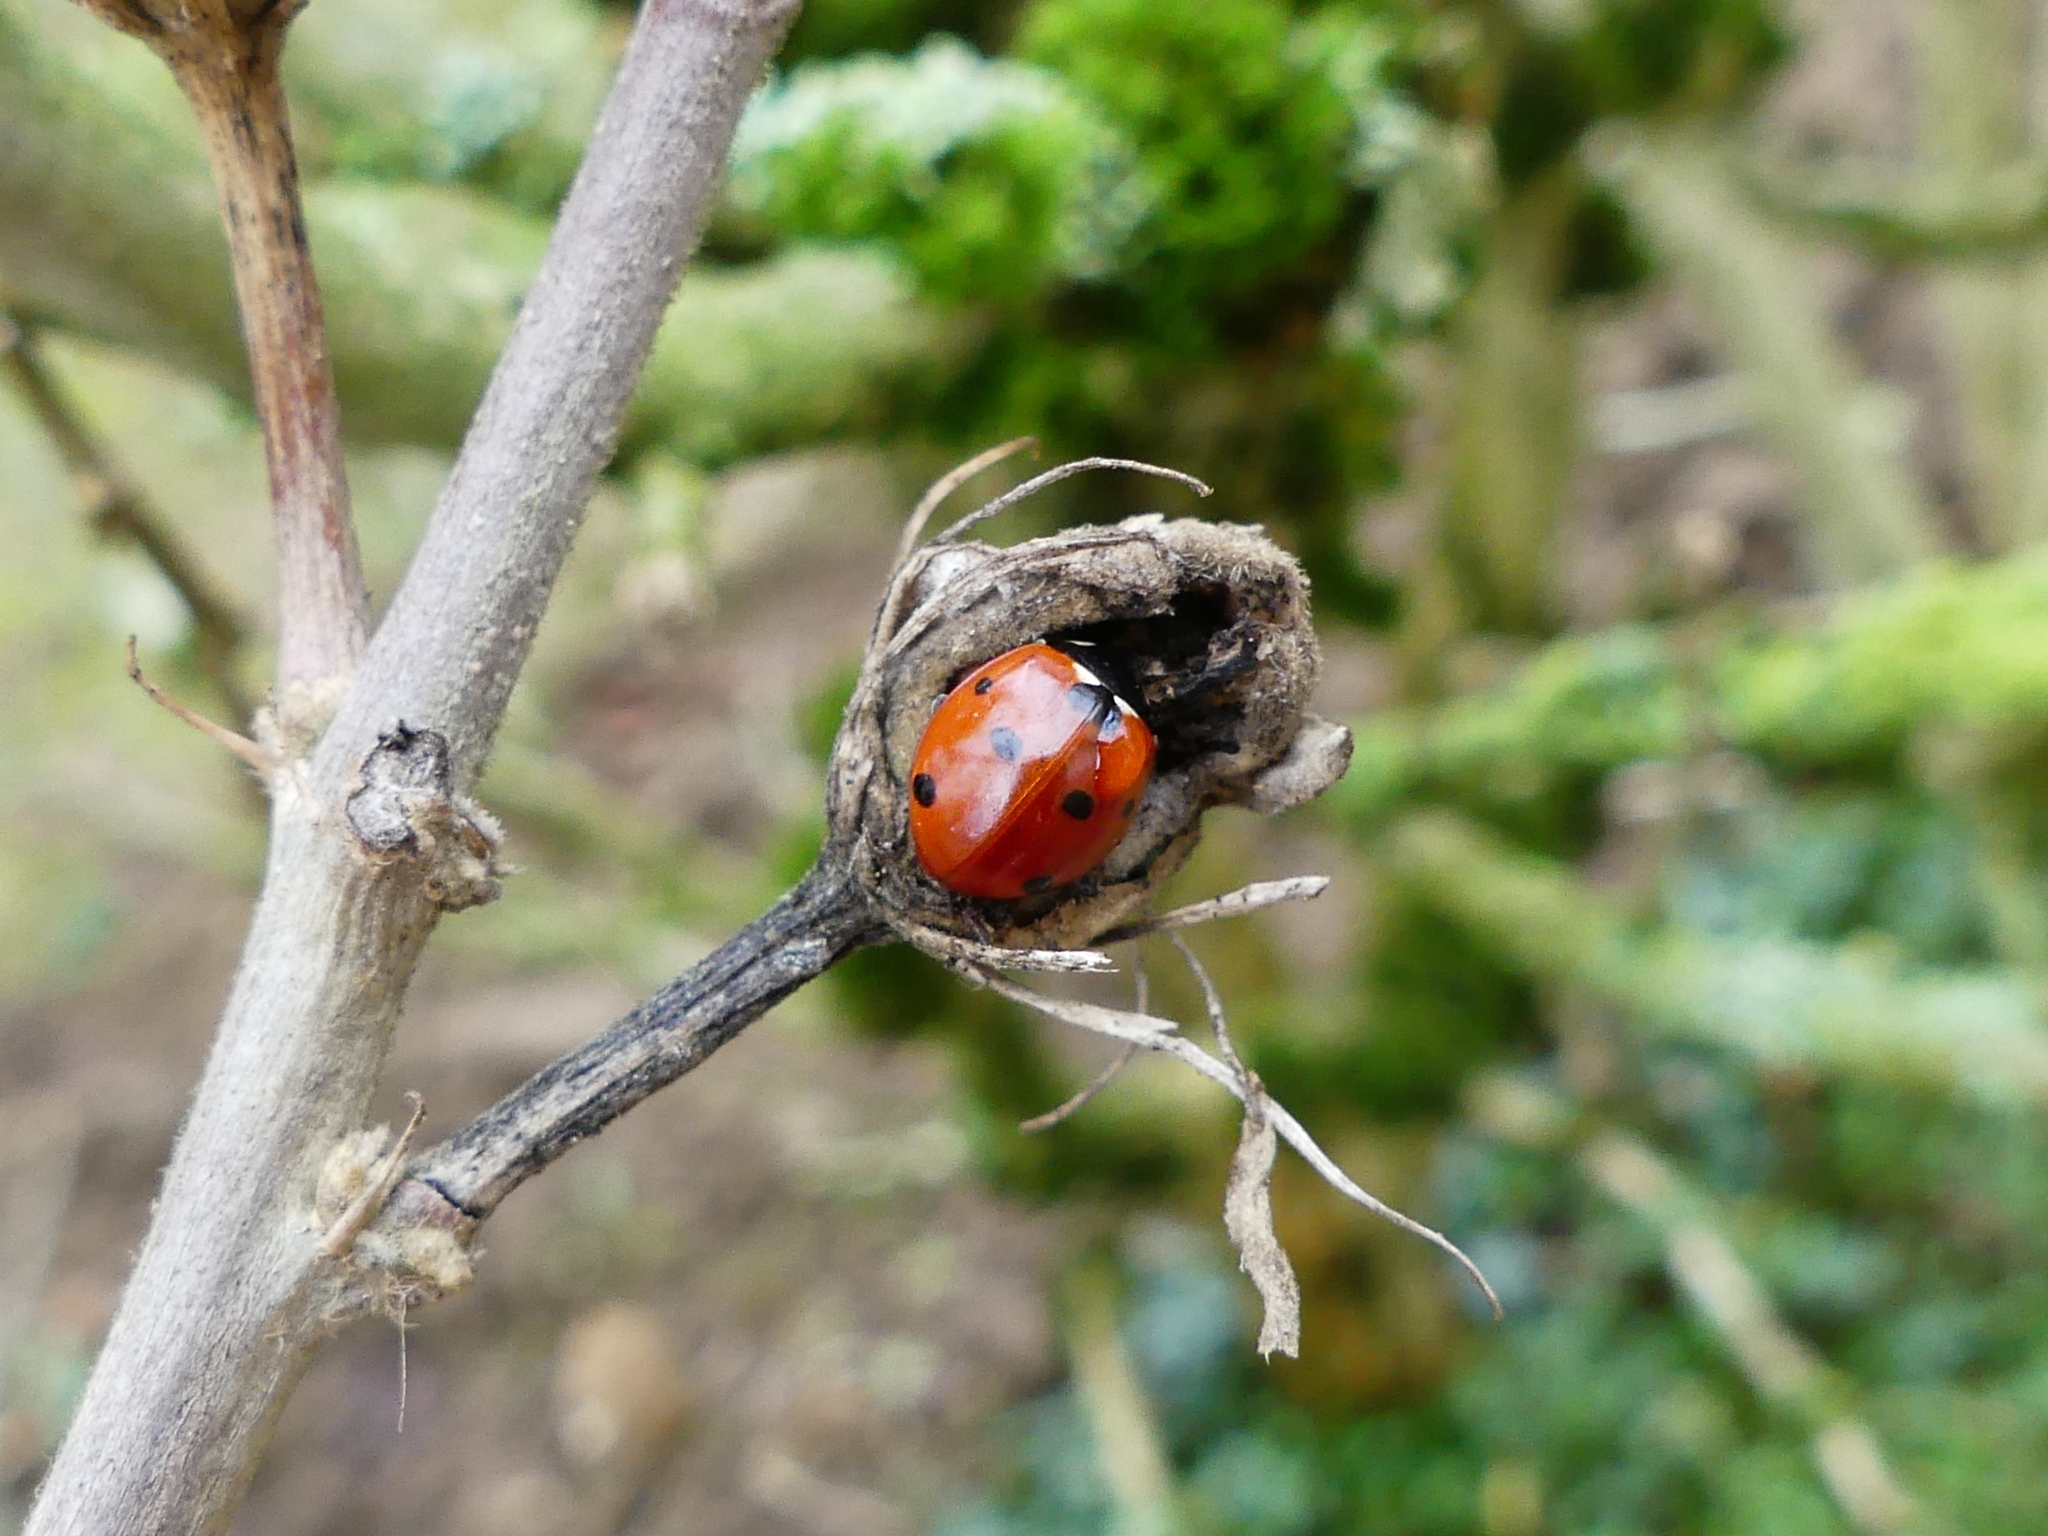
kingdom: Animalia
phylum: Arthropoda
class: Insecta
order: Coleoptera
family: Coccinellidae
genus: Coccinella
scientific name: Coccinella septempunctata
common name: Sevenspotted lady beetle
